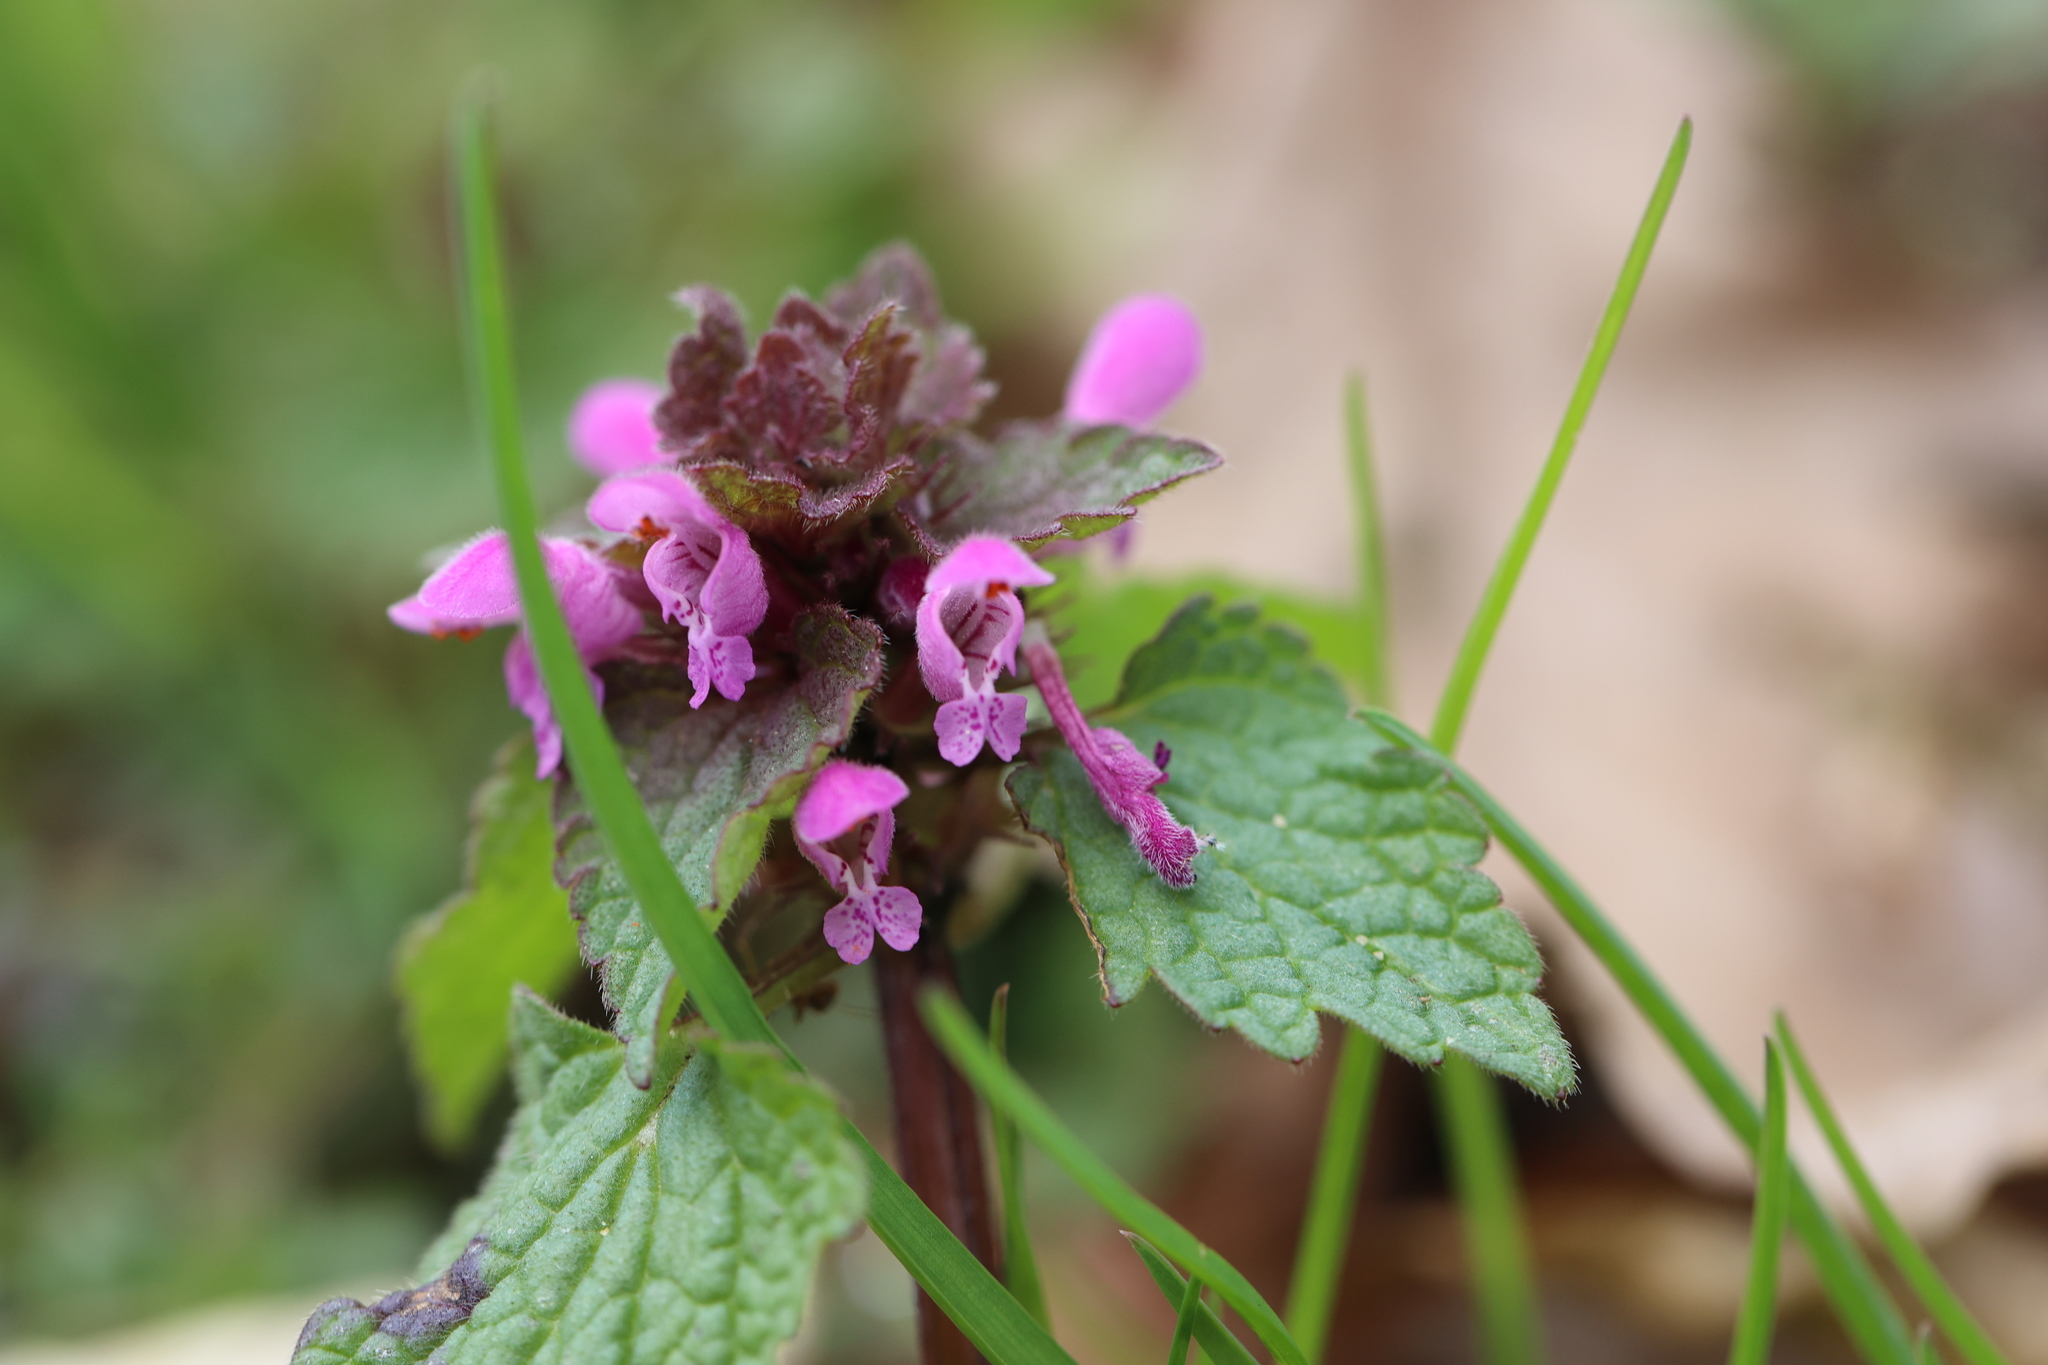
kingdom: Plantae
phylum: Tracheophyta
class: Magnoliopsida
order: Lamiales
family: Lamiaceae
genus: Lamium
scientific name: Lamium purpureum
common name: Red dead-nettle
